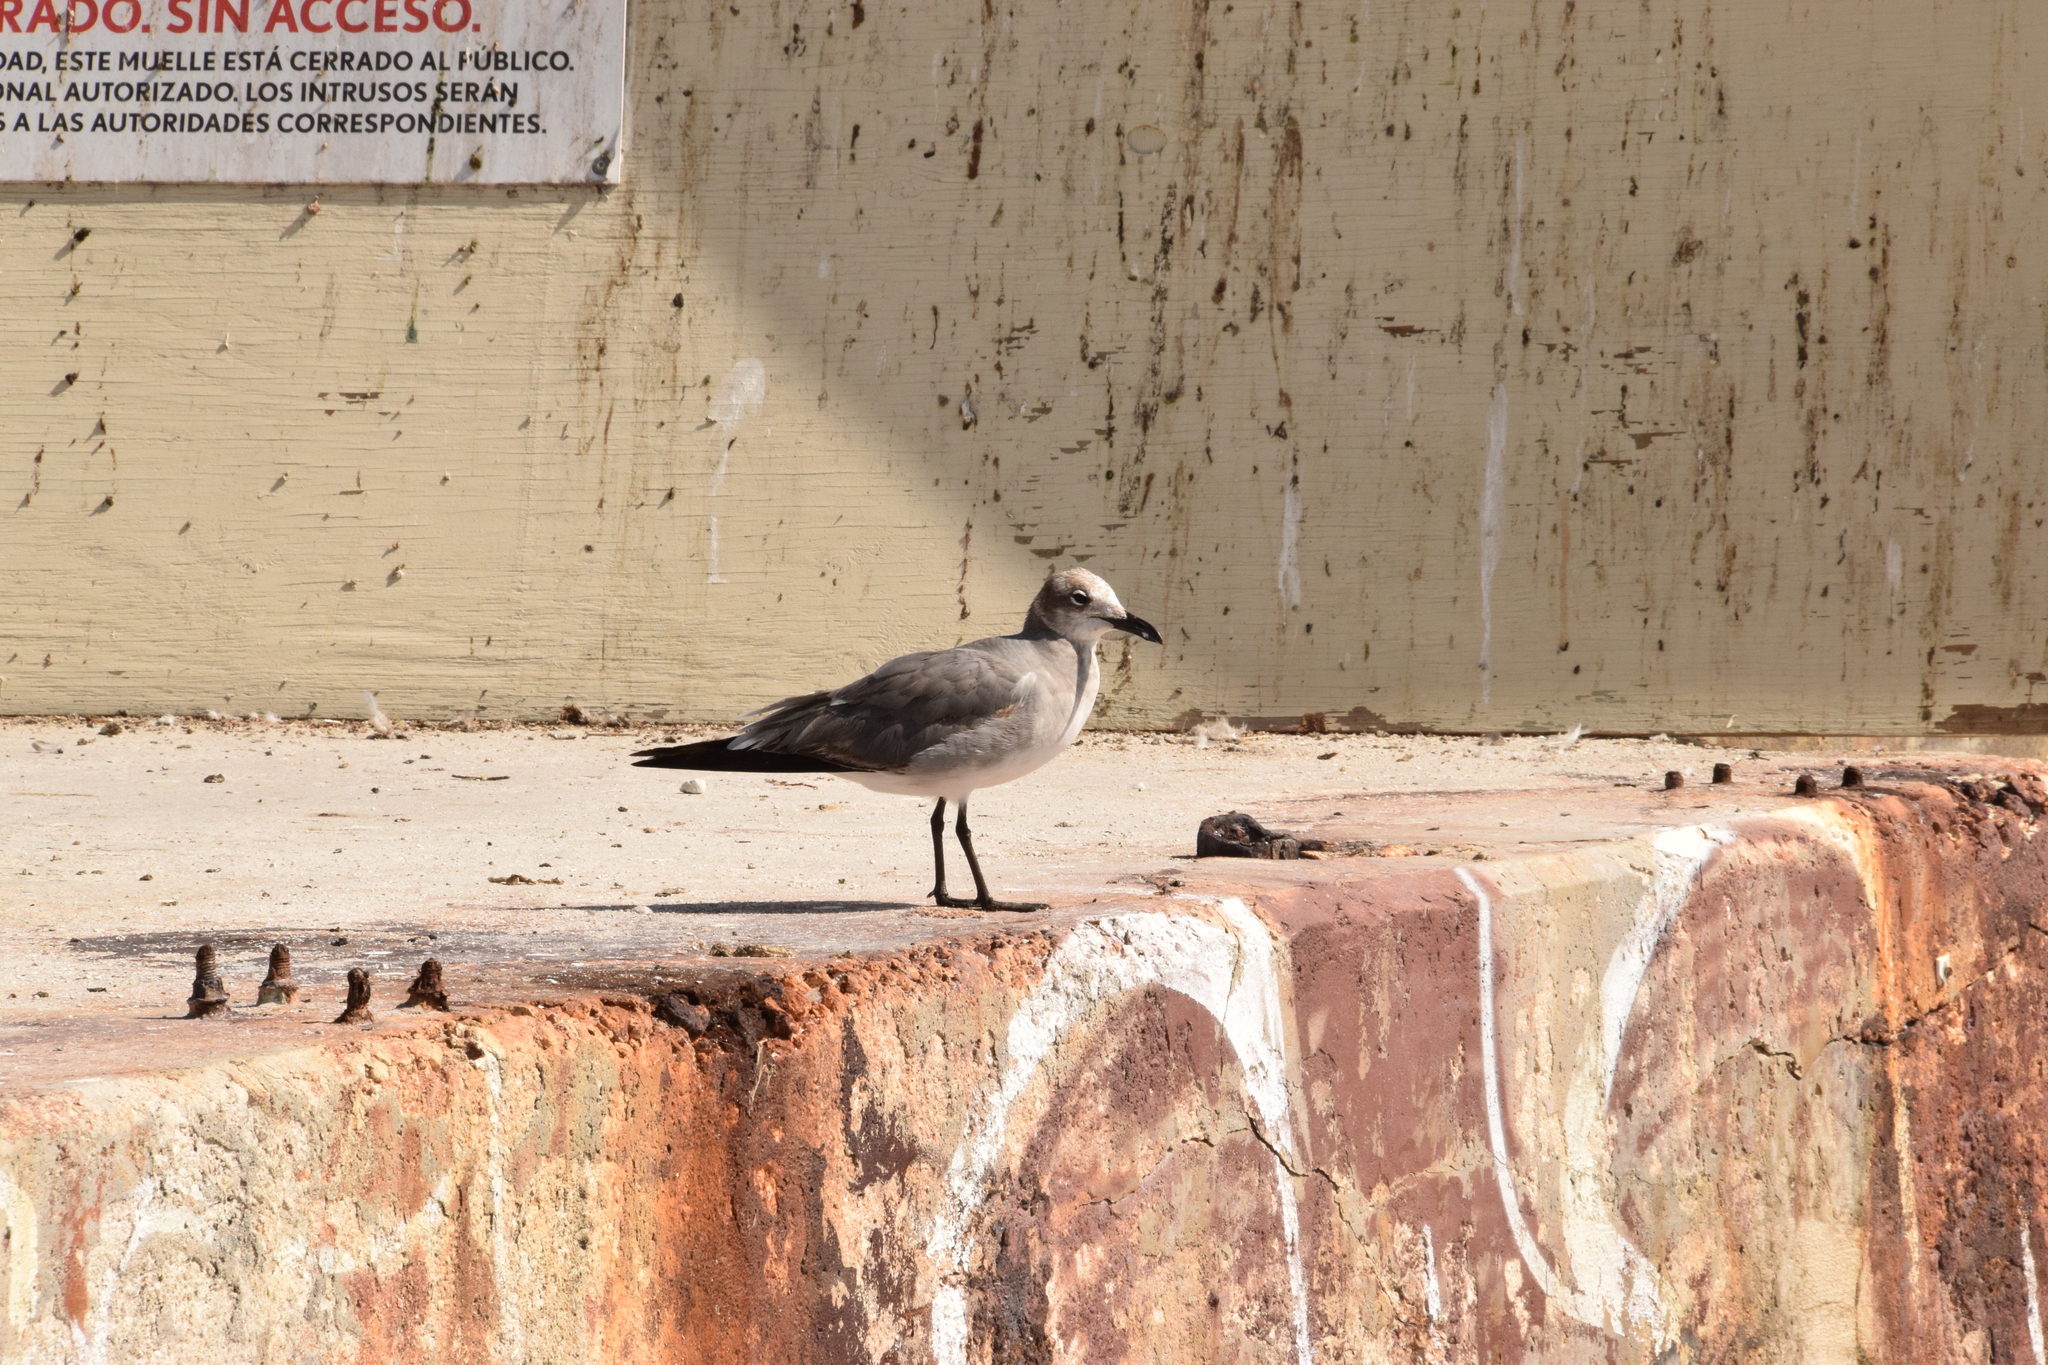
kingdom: Animalia
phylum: Chordata
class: Aves
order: Charadriiformes
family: Laridae
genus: Leucophaeus
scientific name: Leucophaeus atricilla
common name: Laughing gull
